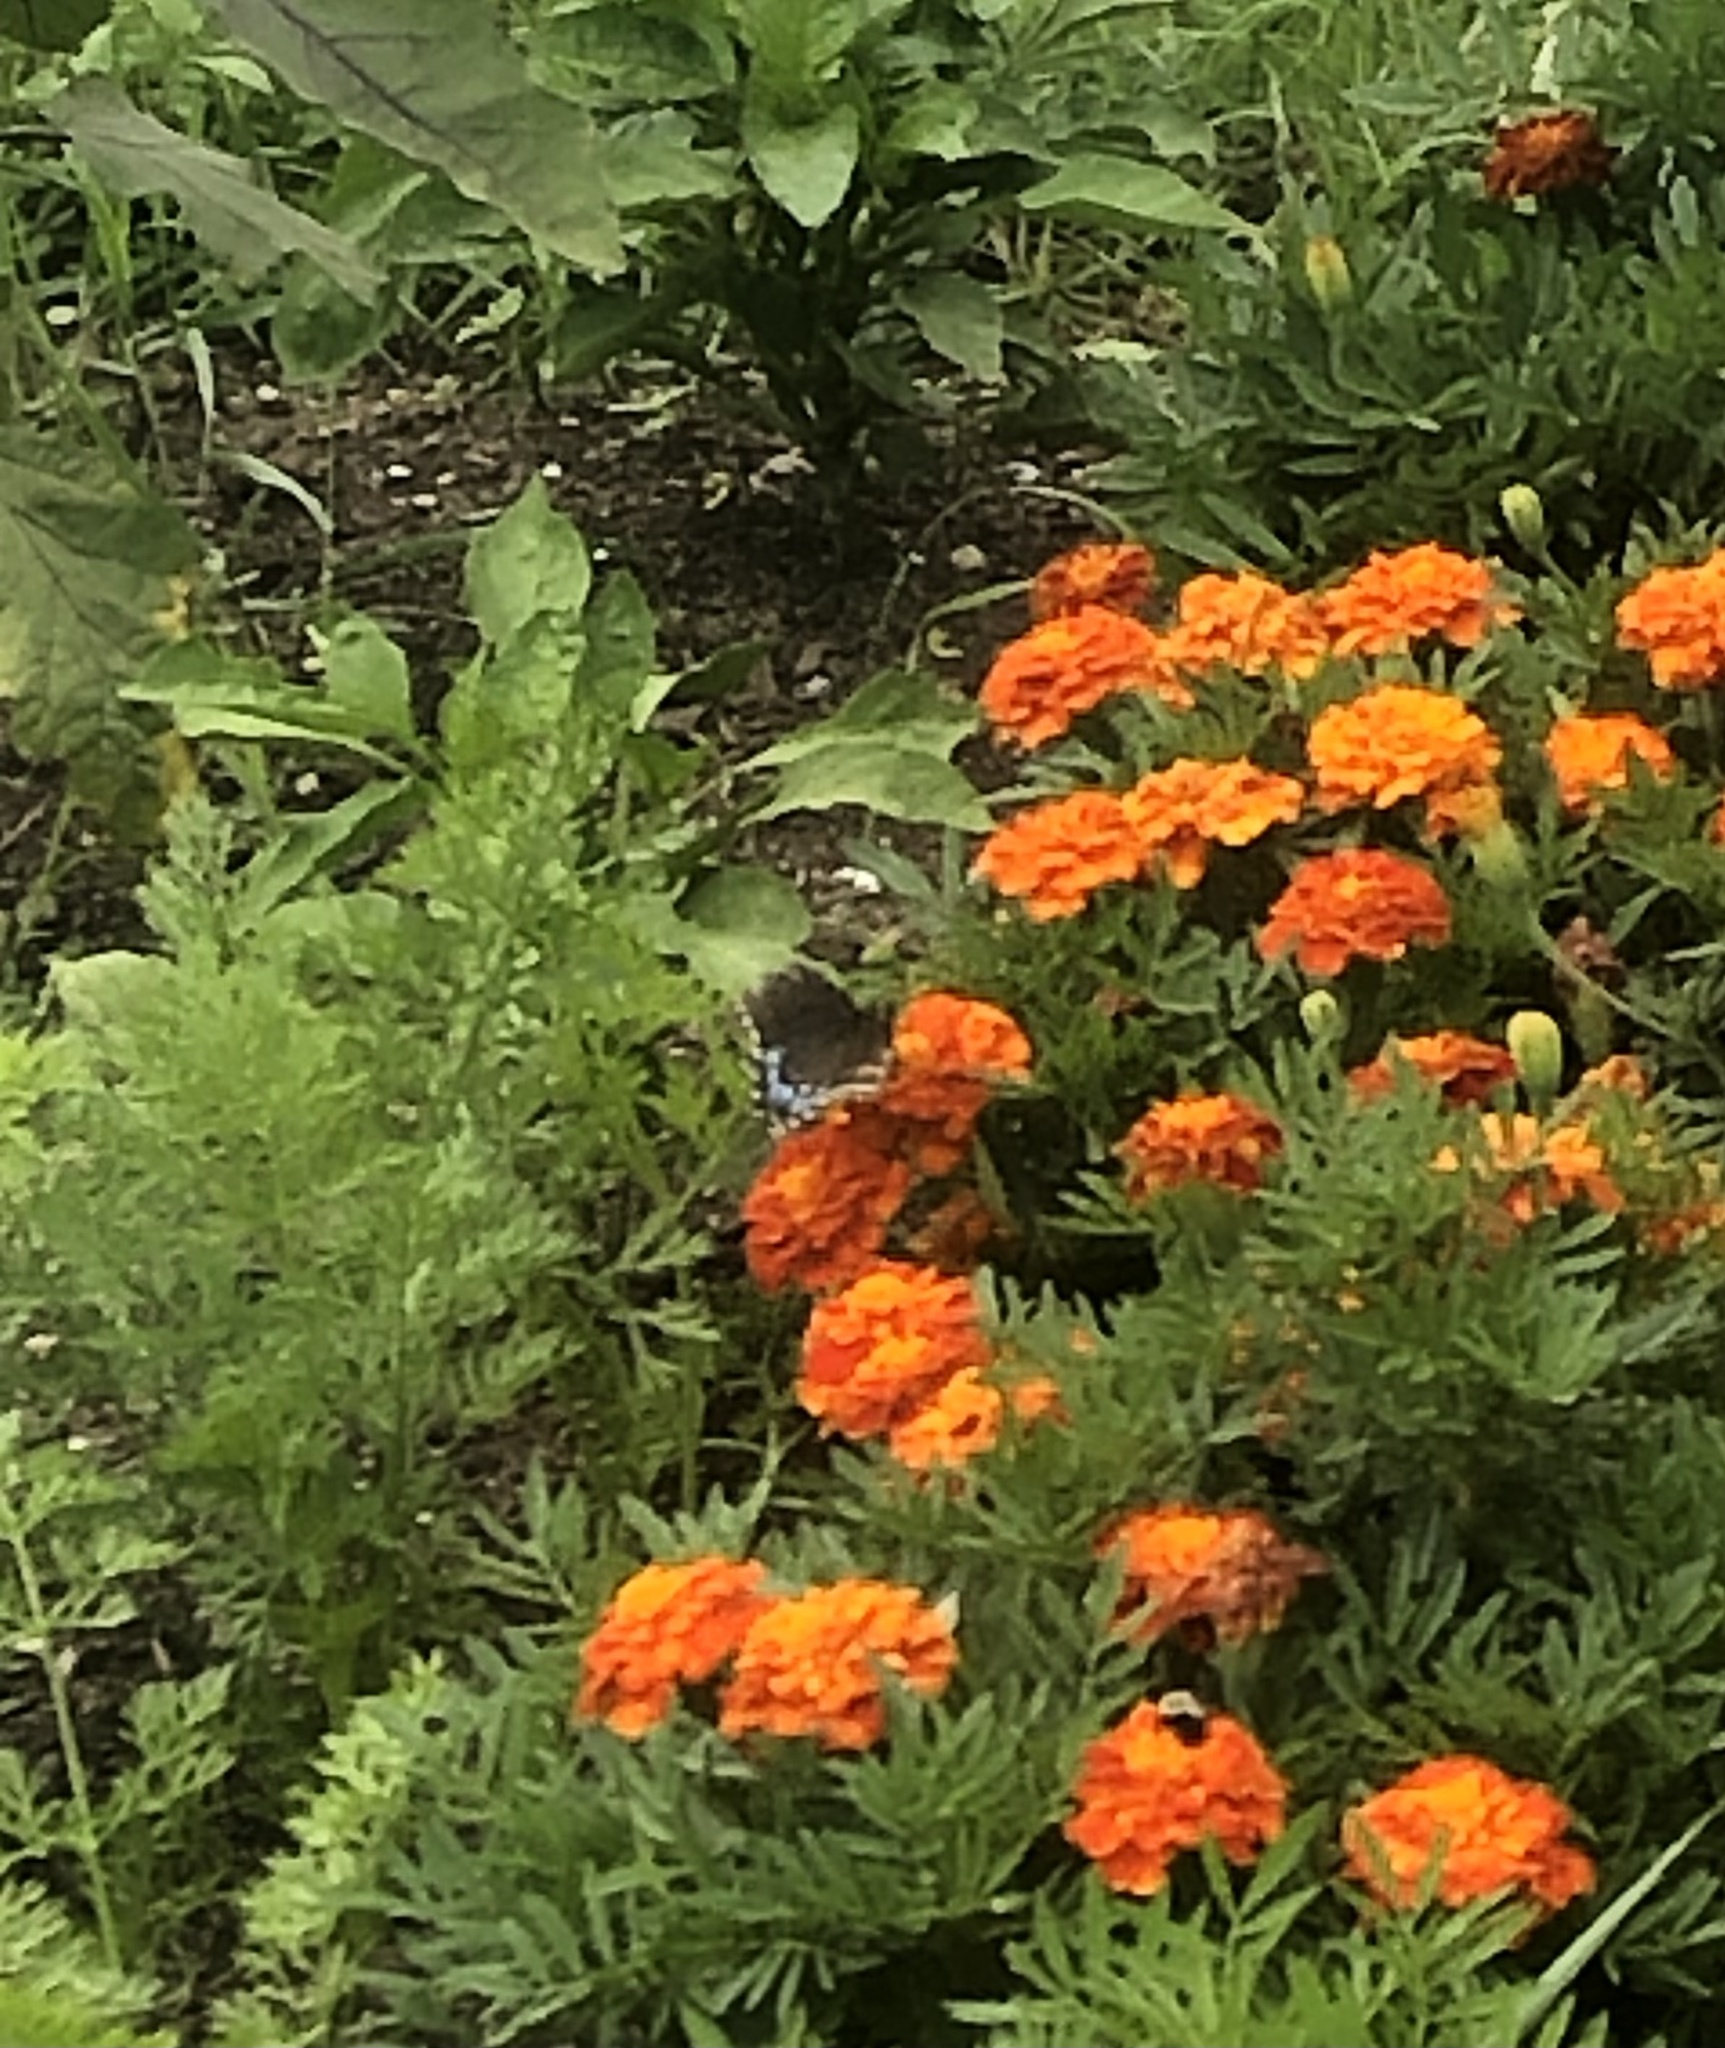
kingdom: Animalia
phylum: Arthropoda
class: Insecta
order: Lepidoptera
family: Papilionidae
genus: Papilio
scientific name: Papilio polyxenes
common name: Black swallowtail
